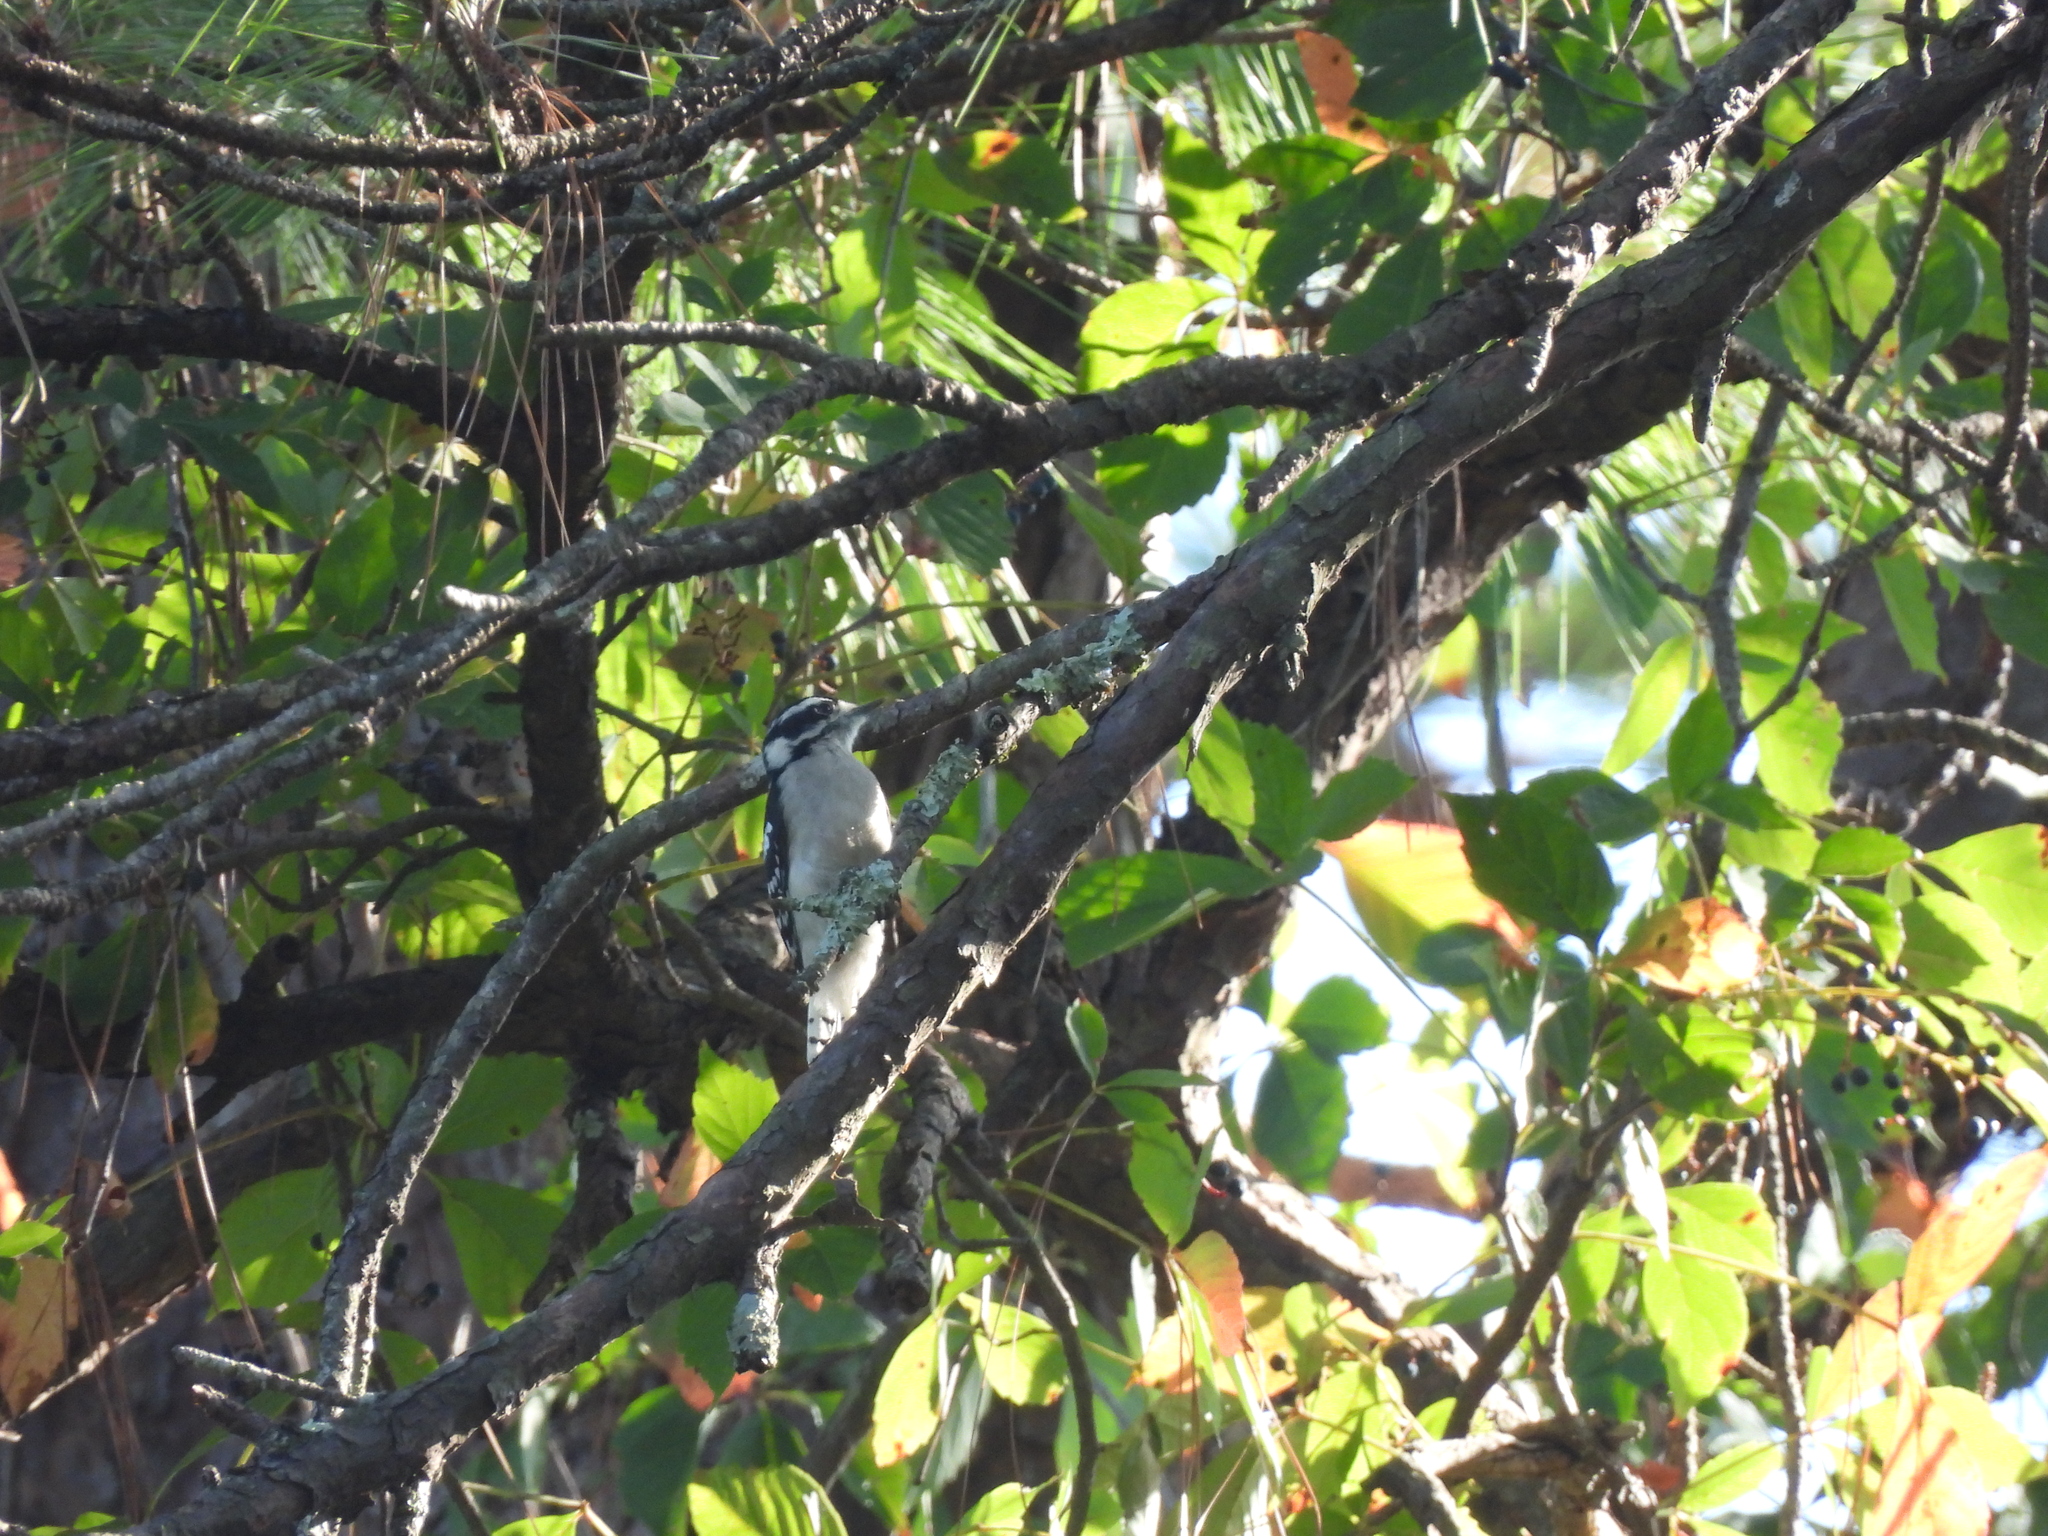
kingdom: Animalia
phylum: Chordata
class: Aves
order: Piciformes
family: Picidae
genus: Dryobates
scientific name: Dryobates pubescens
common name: Downy woodpecker
